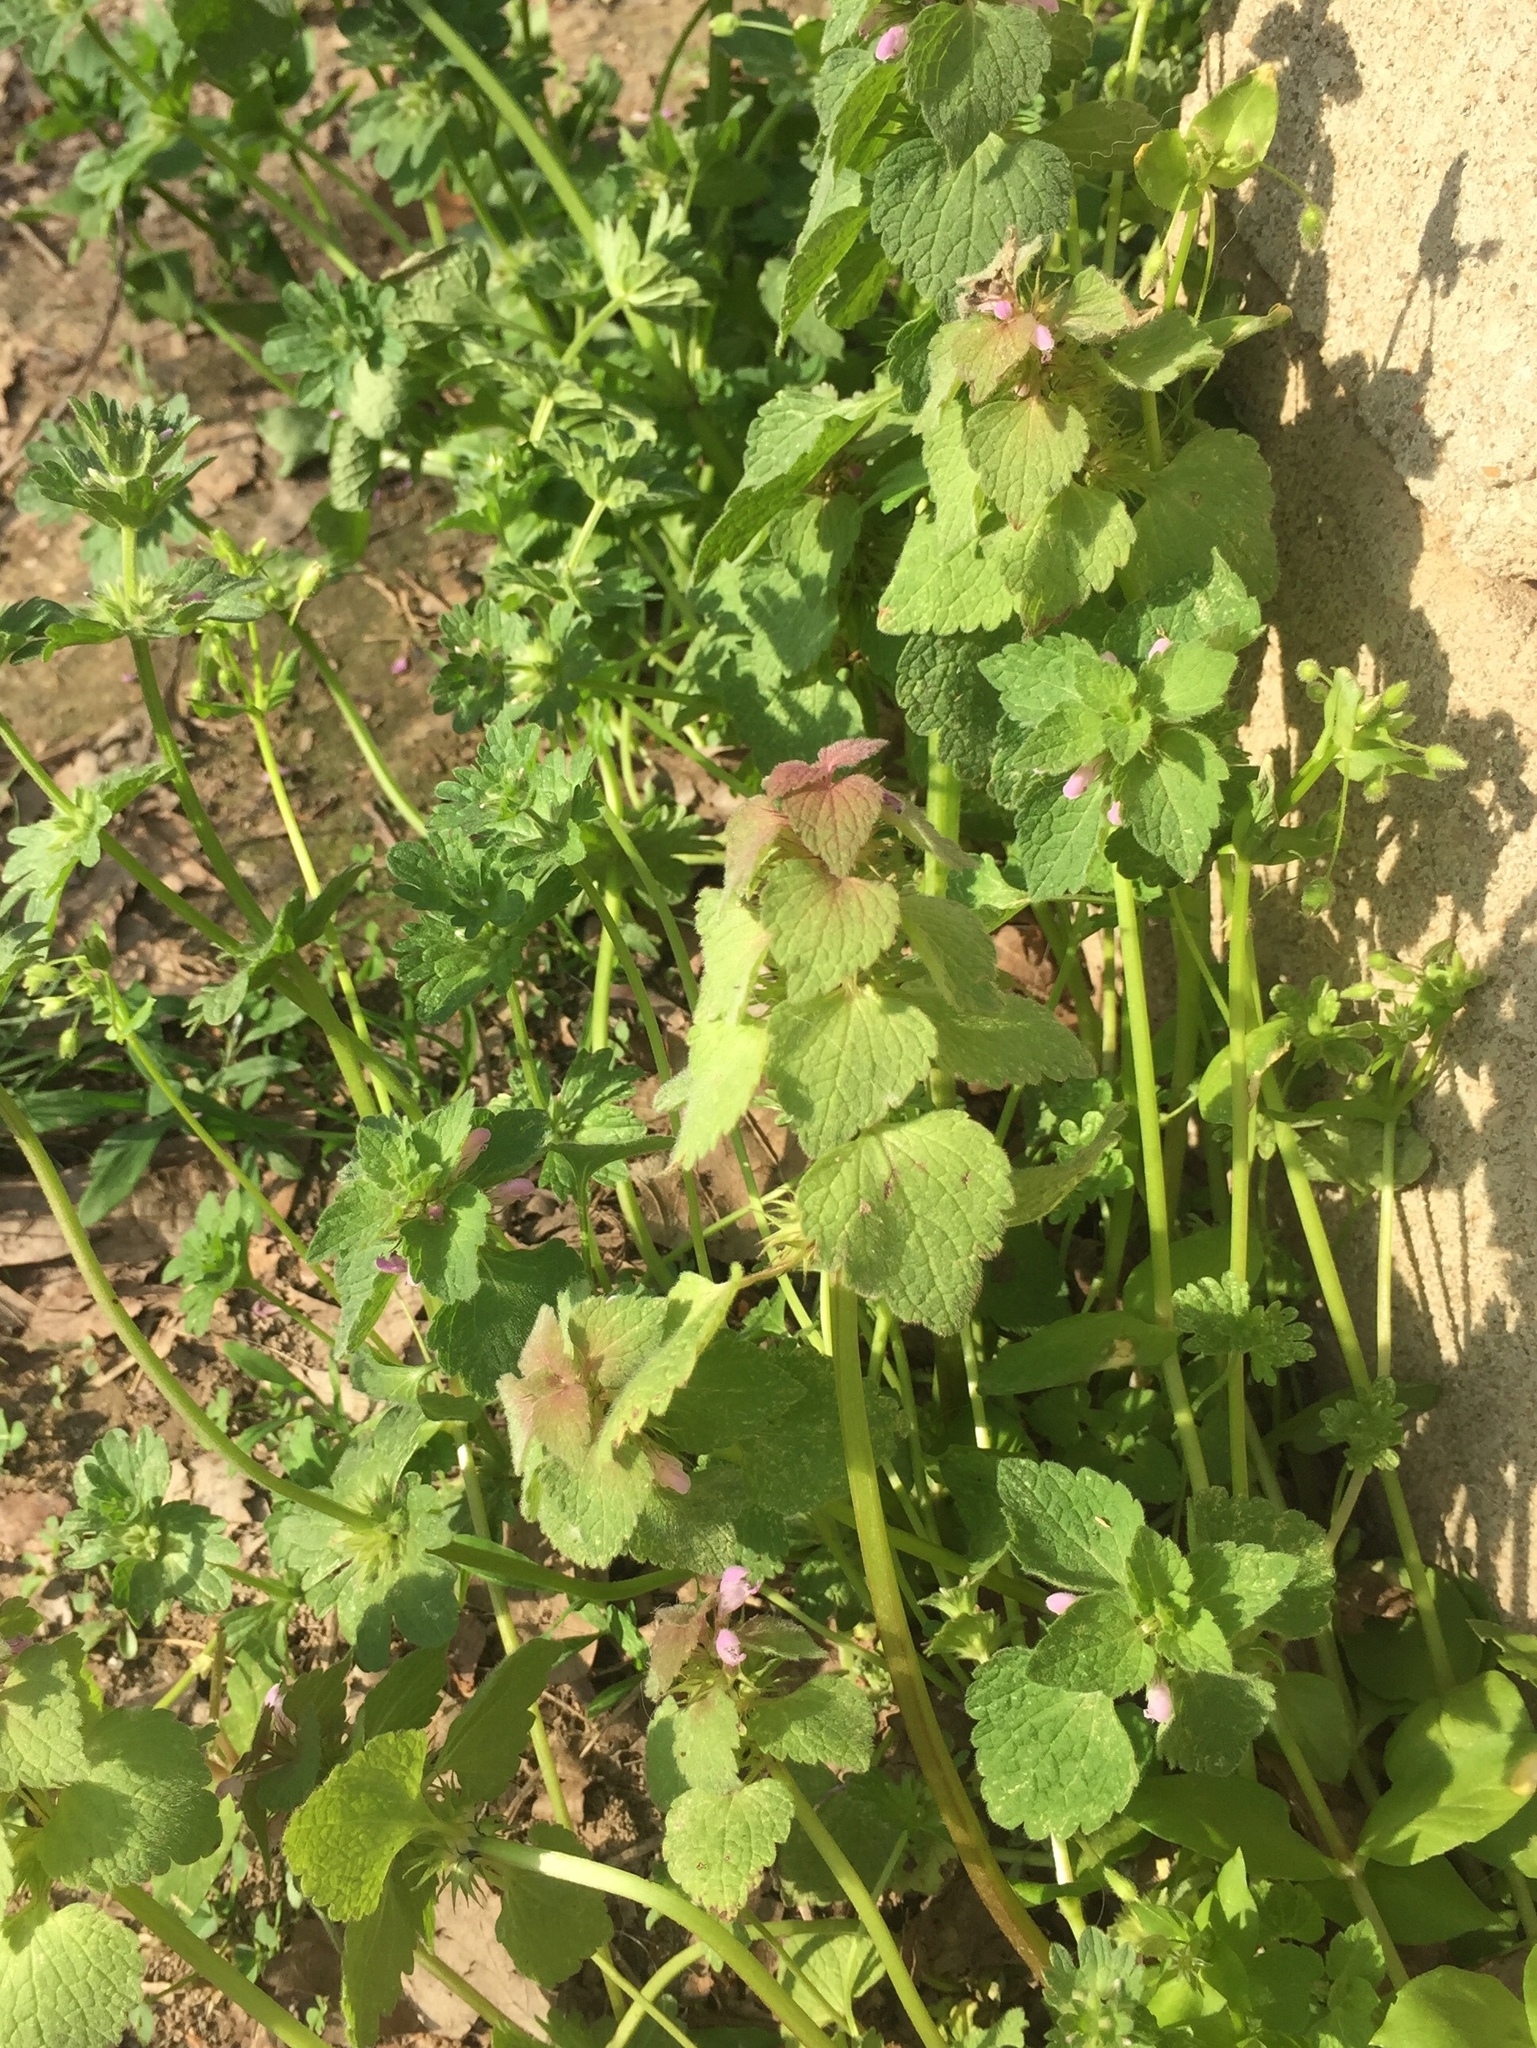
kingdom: Plantae
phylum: Tracheophyta
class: Magnoliopsida
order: Lamiales
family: Lamiaceae
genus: Lamium
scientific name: Lamium purpureum
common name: Red dead-nettle
